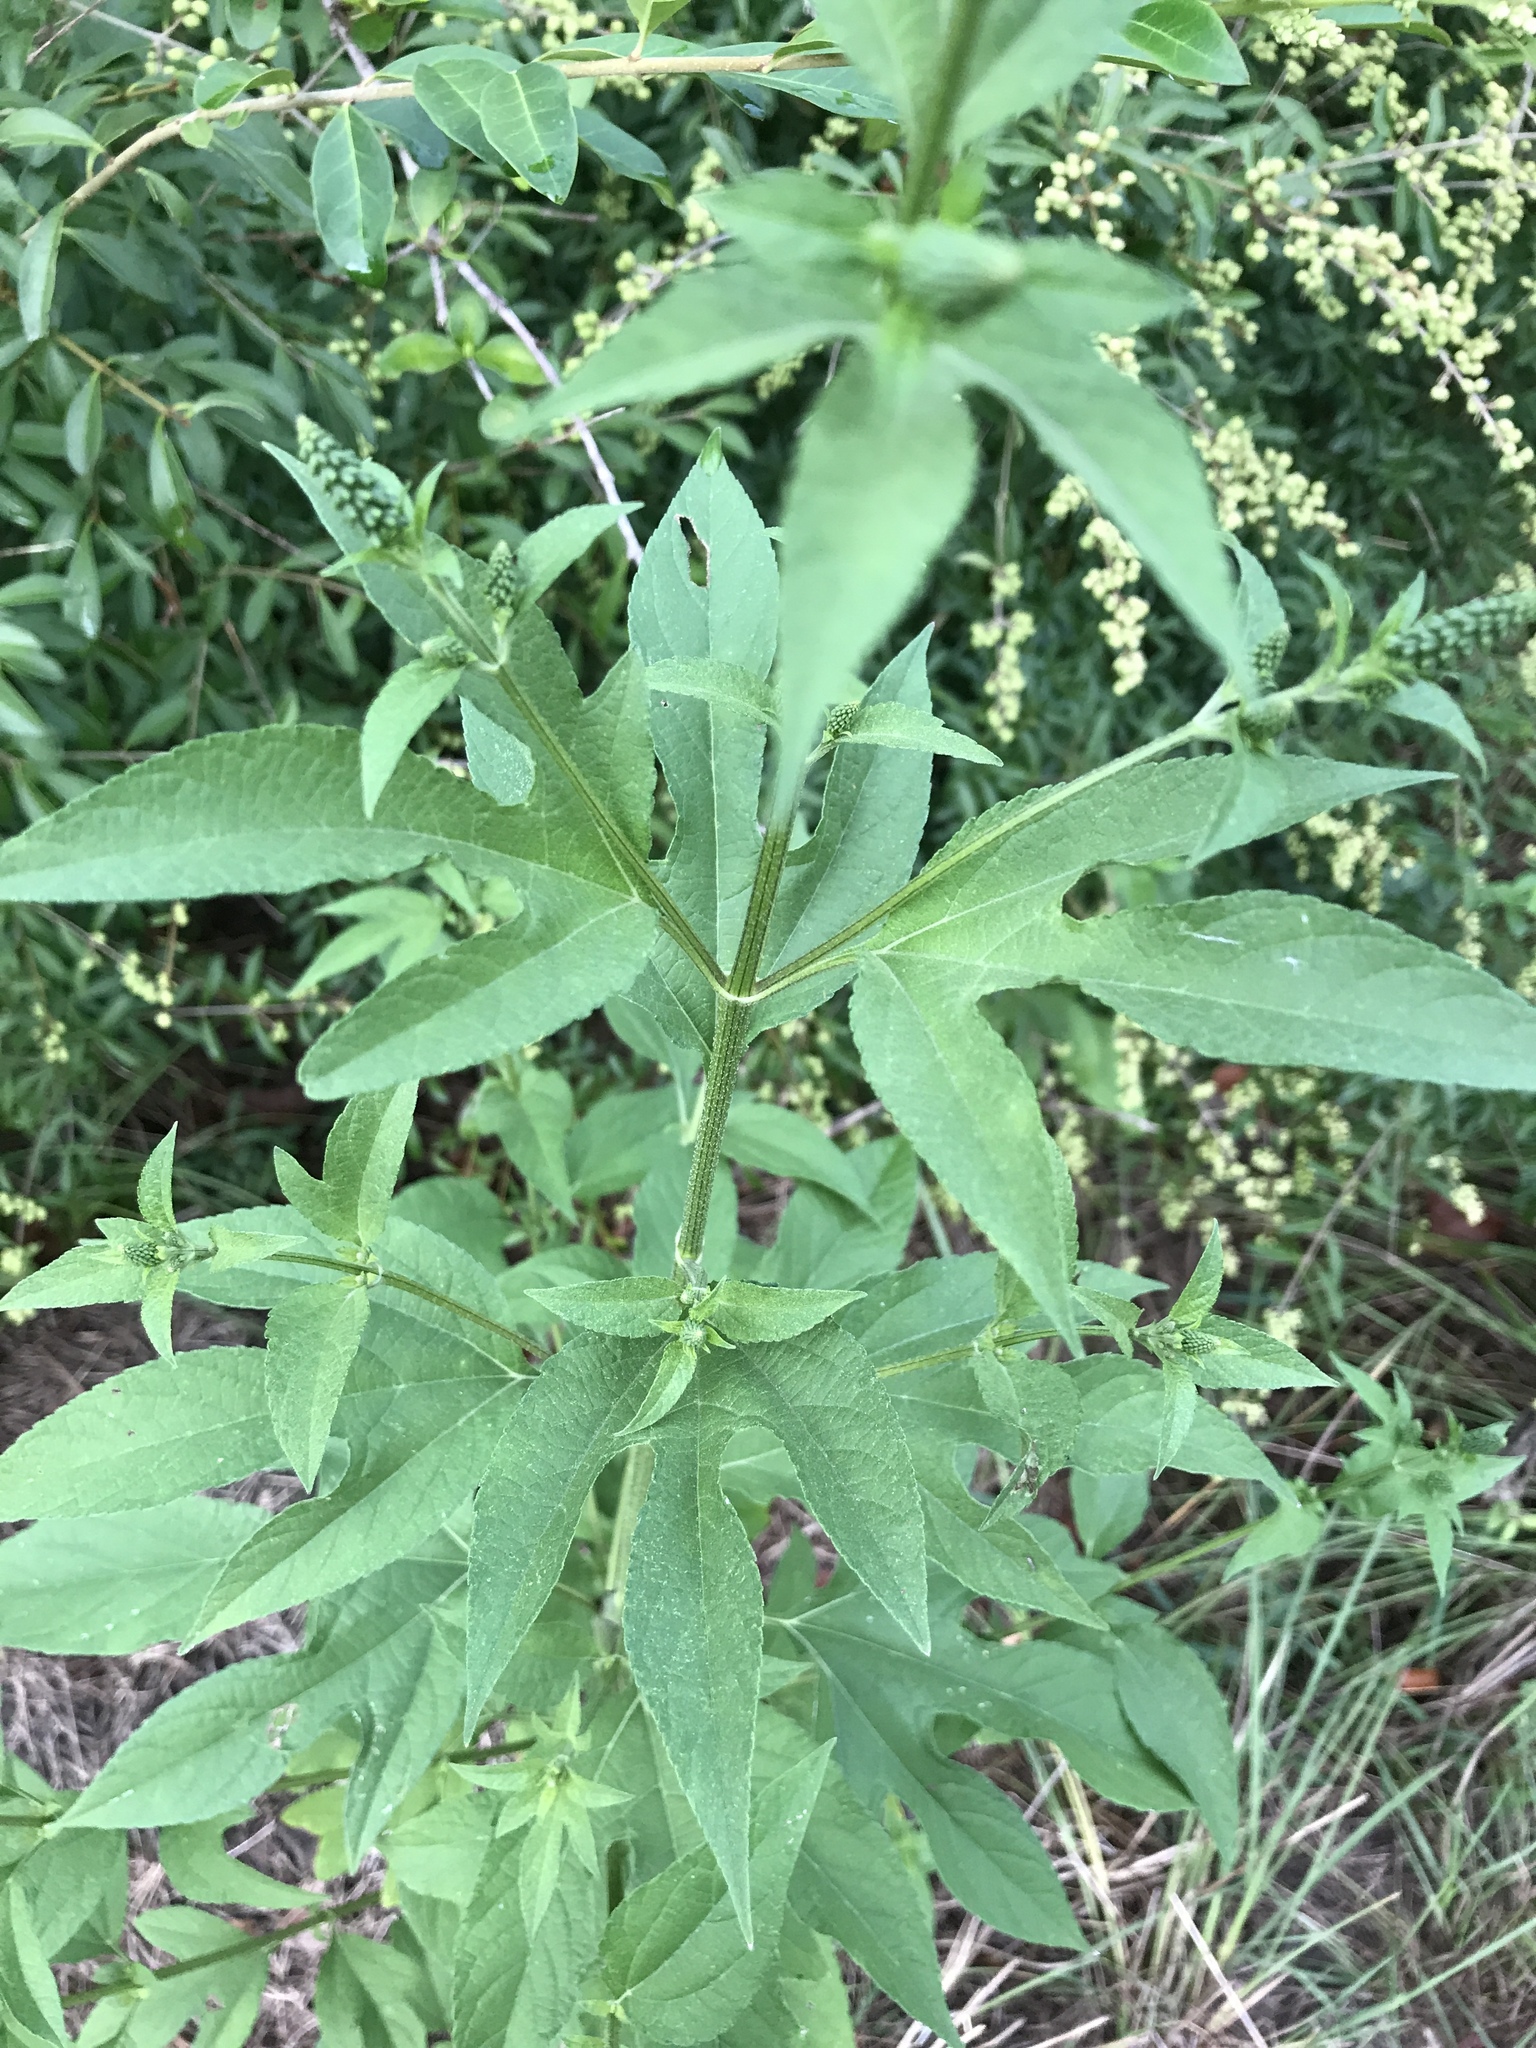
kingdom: Plantae
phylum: Tracheophyta
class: Magnoliopsida
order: Asterales
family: Asteraceae
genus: Ambrosia
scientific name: Ambrosia trifida
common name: Giant ragweed
